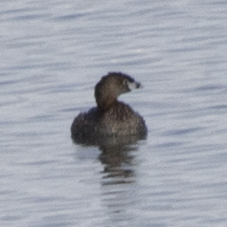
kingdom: Animalia
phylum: Chordata
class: Aves
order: Podicipediformes
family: Podicipedidae
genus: Podilymbus
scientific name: Podilymbus podiceps
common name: Pied-billed grebe
